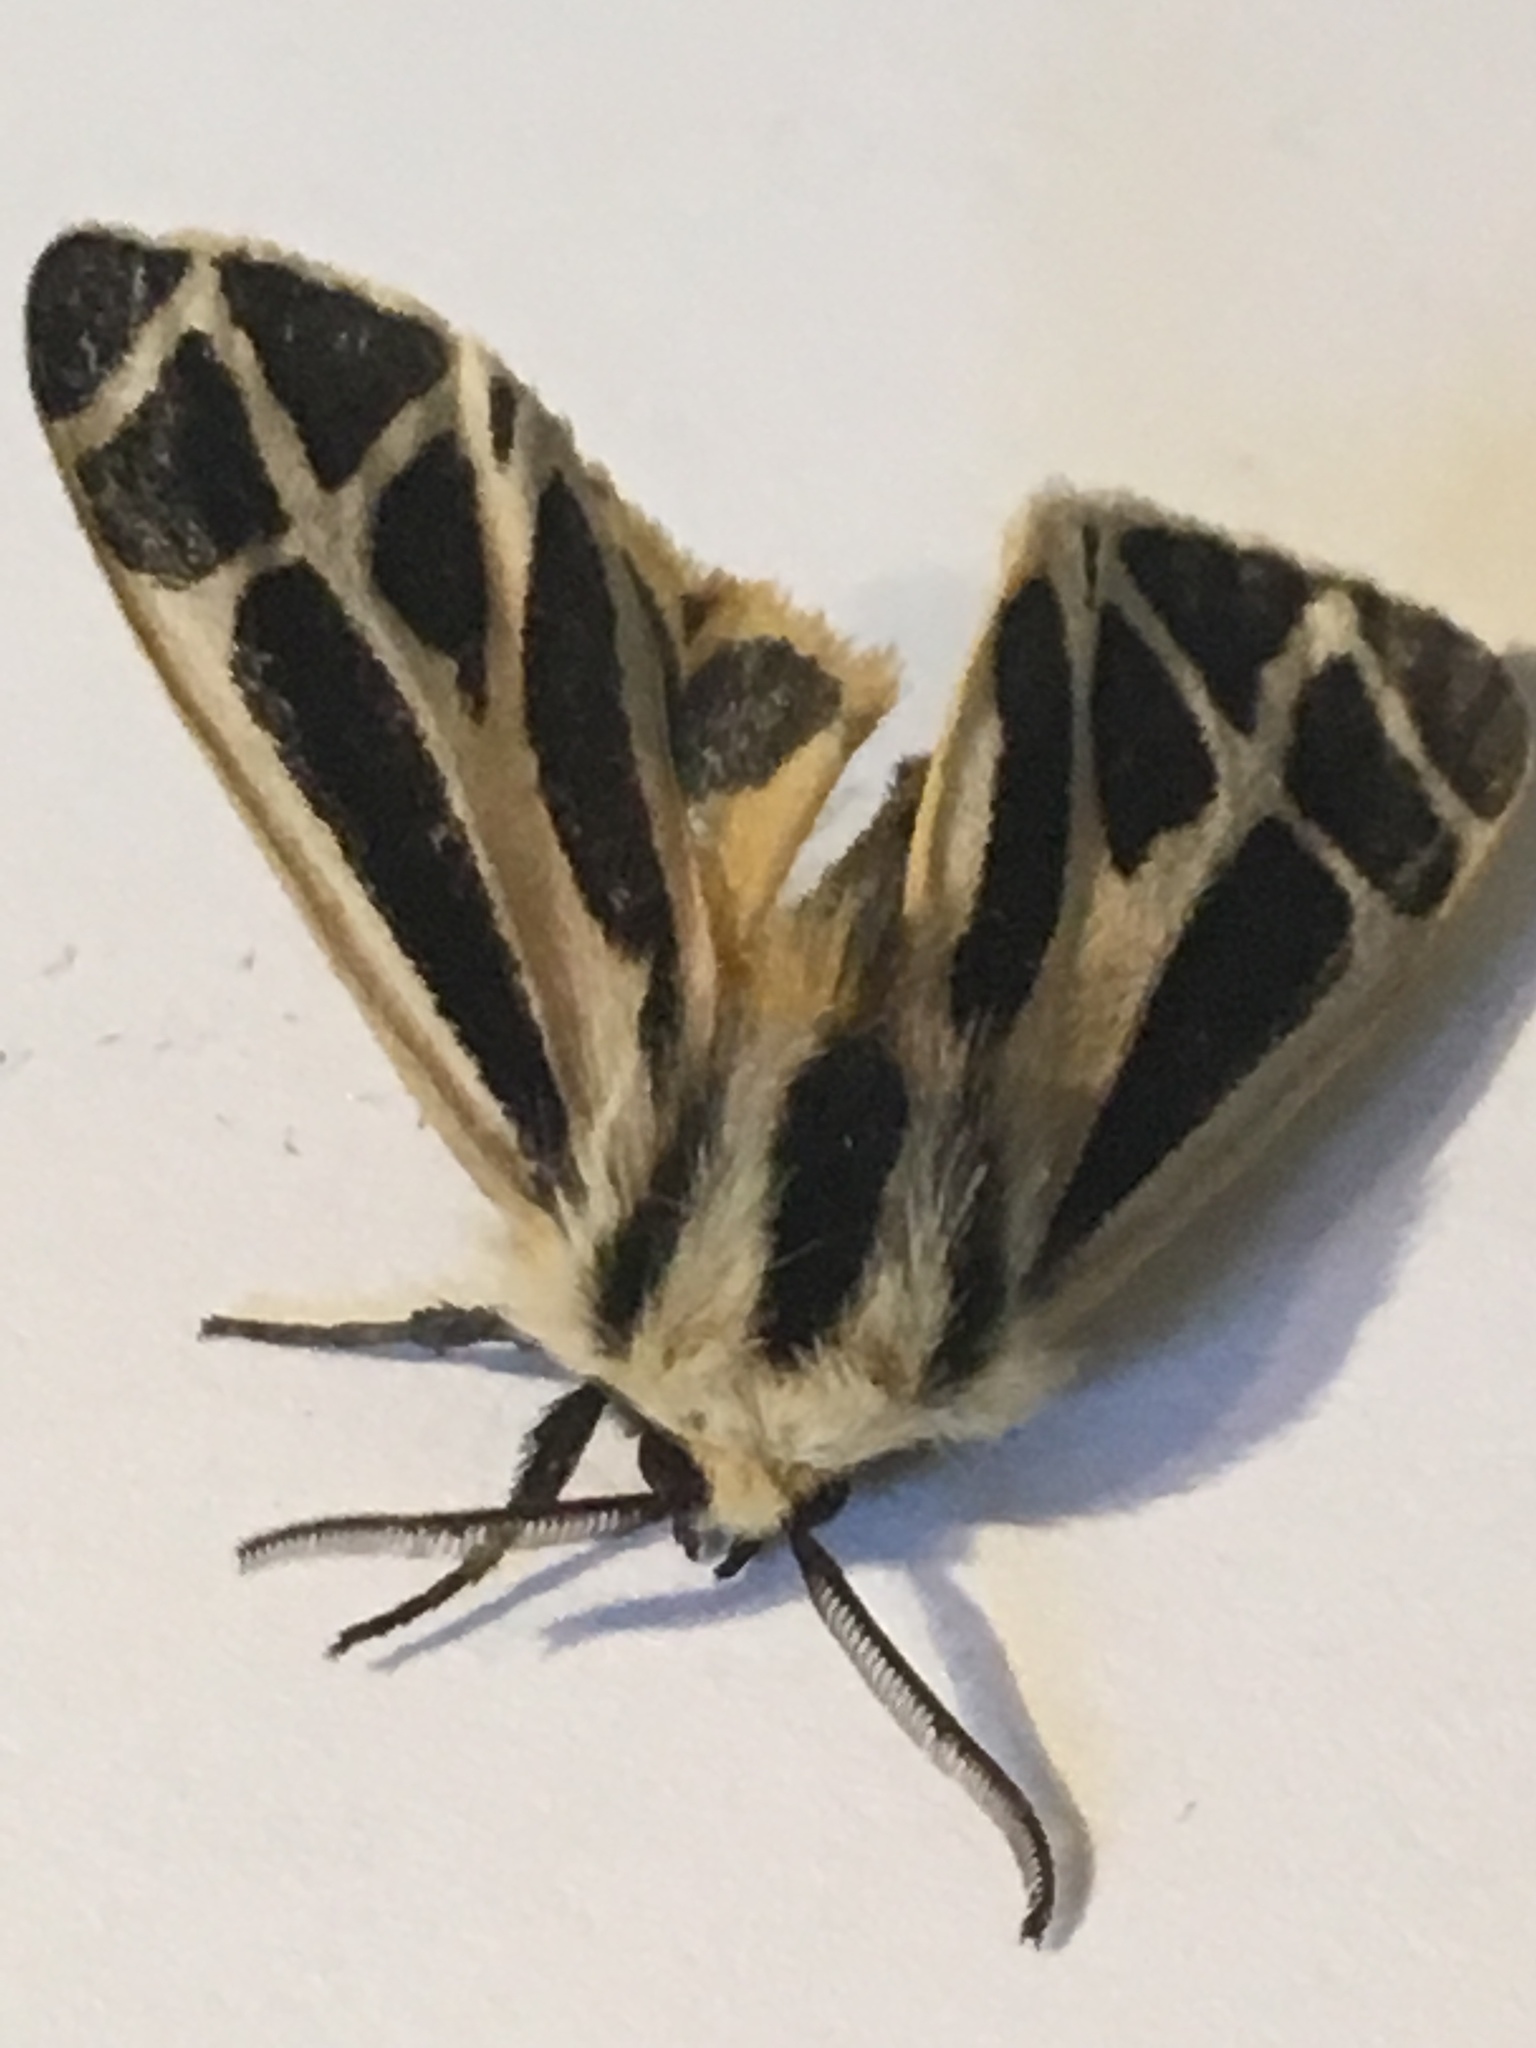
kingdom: Animalia
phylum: Arthropoda
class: Insecta
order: Lepidoptera
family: Erebidae
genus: Apantesis
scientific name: Apantesis nais
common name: Nais tiger moth
